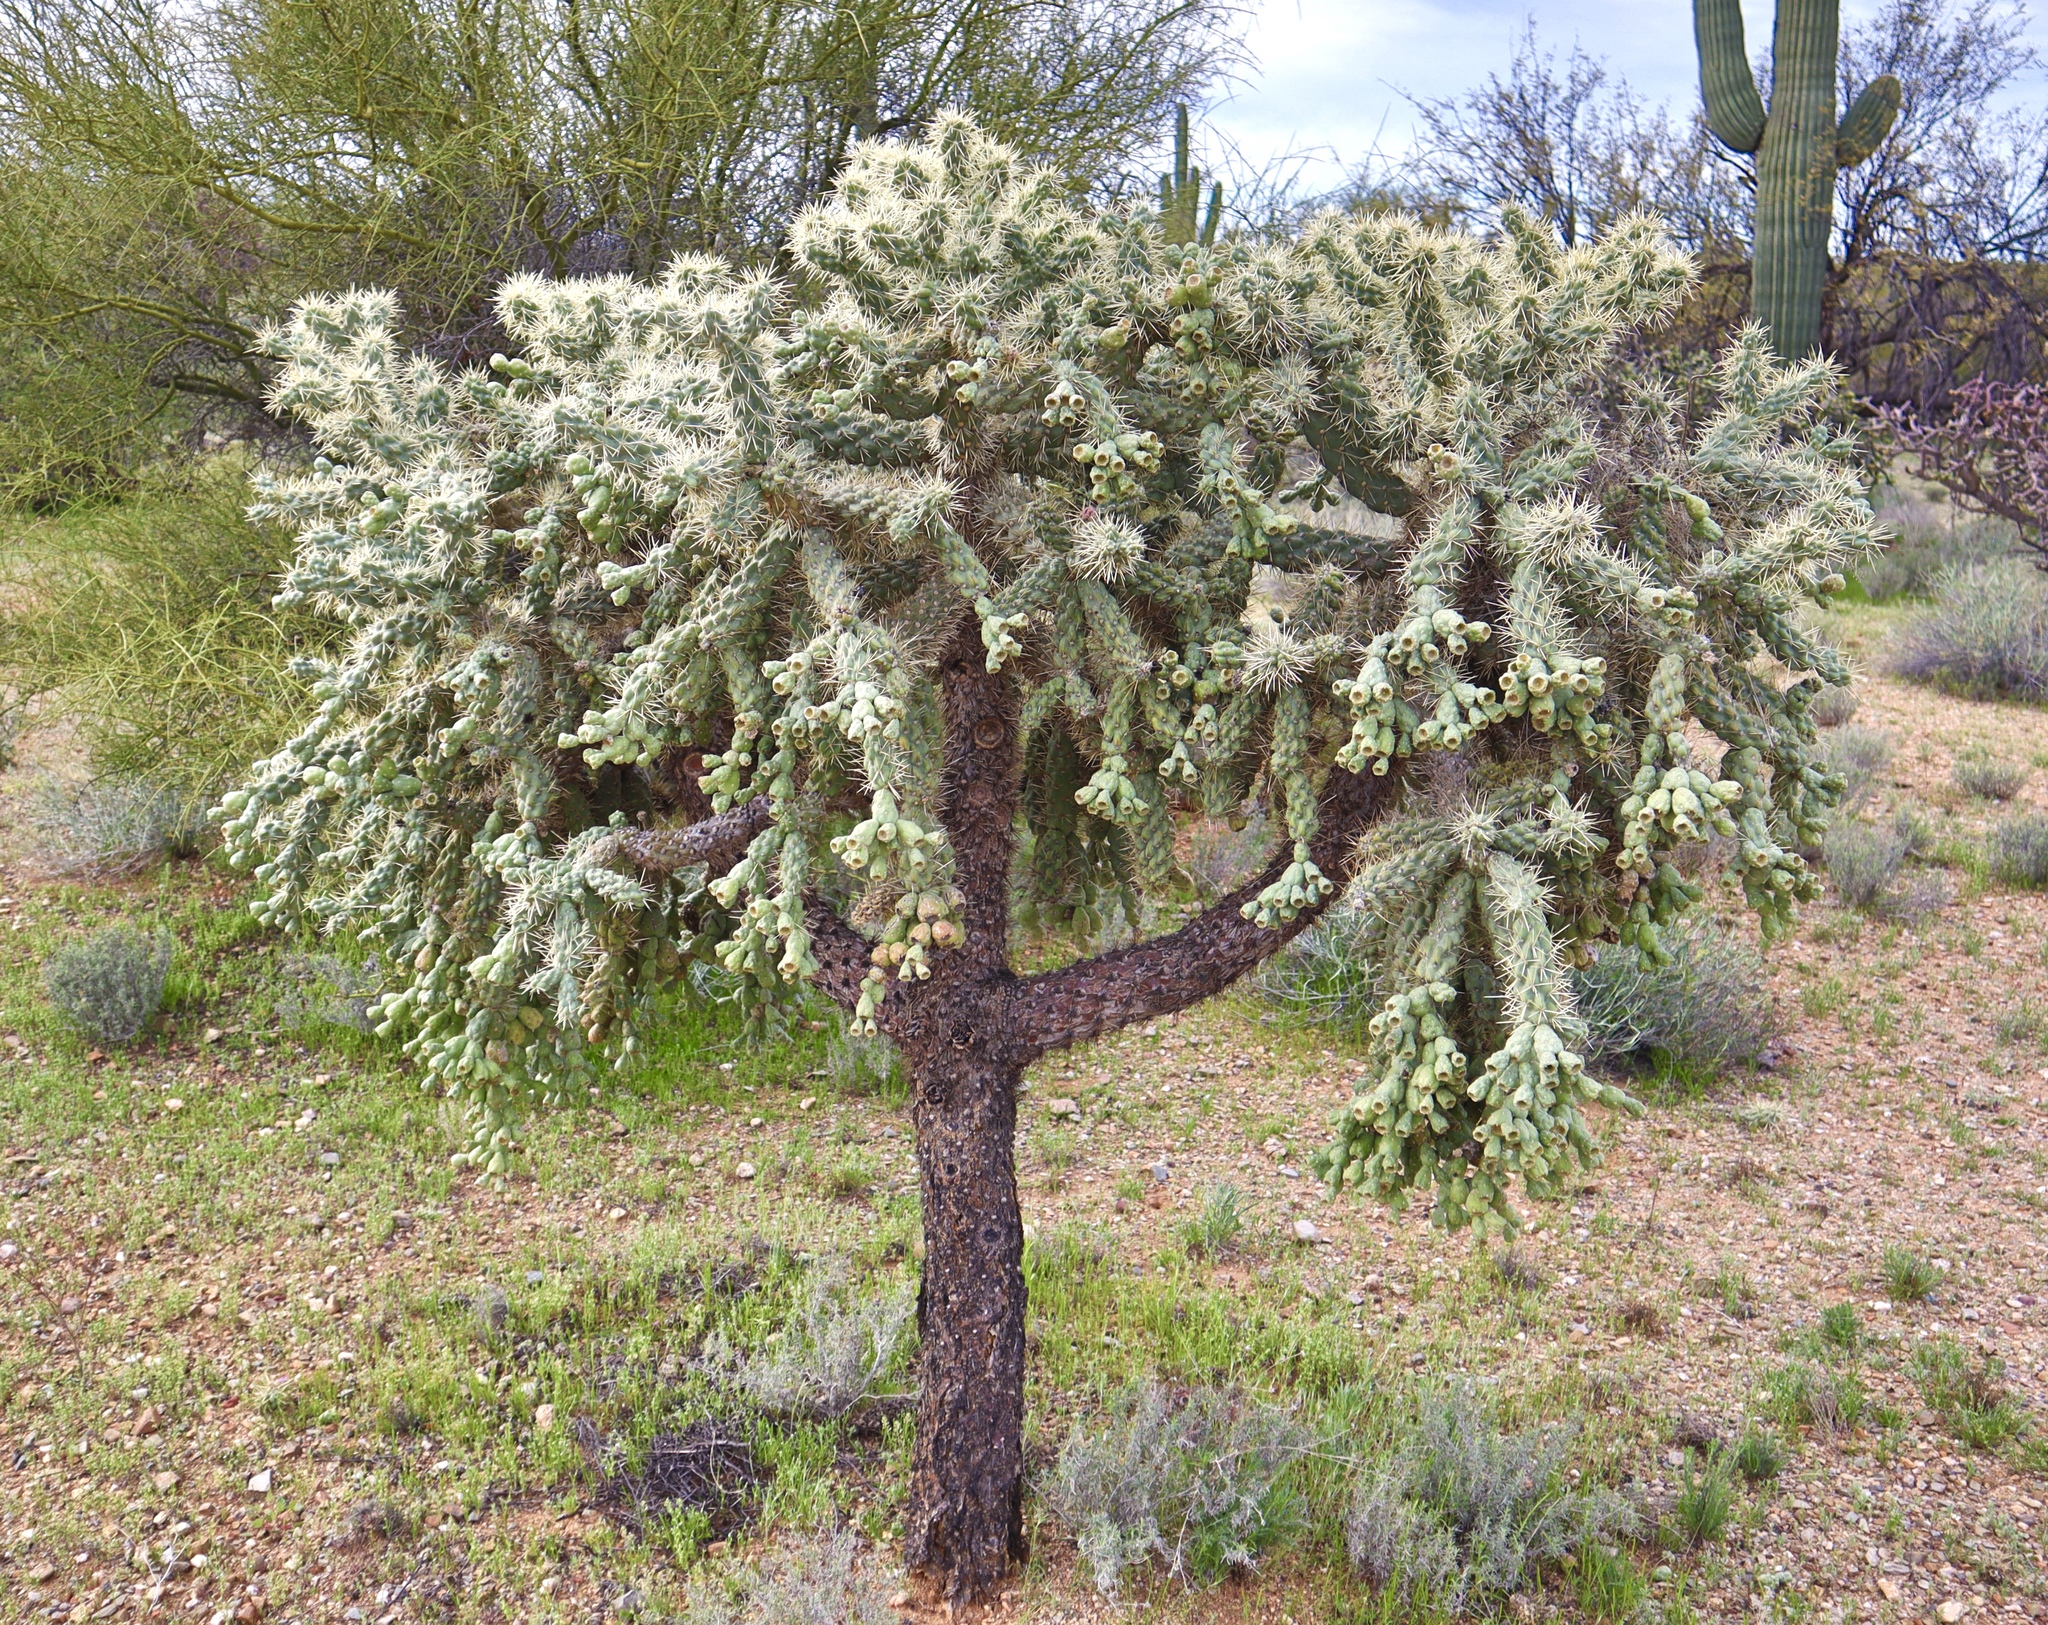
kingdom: Plantae
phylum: Tracheophyta
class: Magnoliopsida
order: Caryophyllales
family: Cactaceae
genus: Cylindropuntia
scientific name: Cylindropuntia fulgida
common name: Jumping cholla
